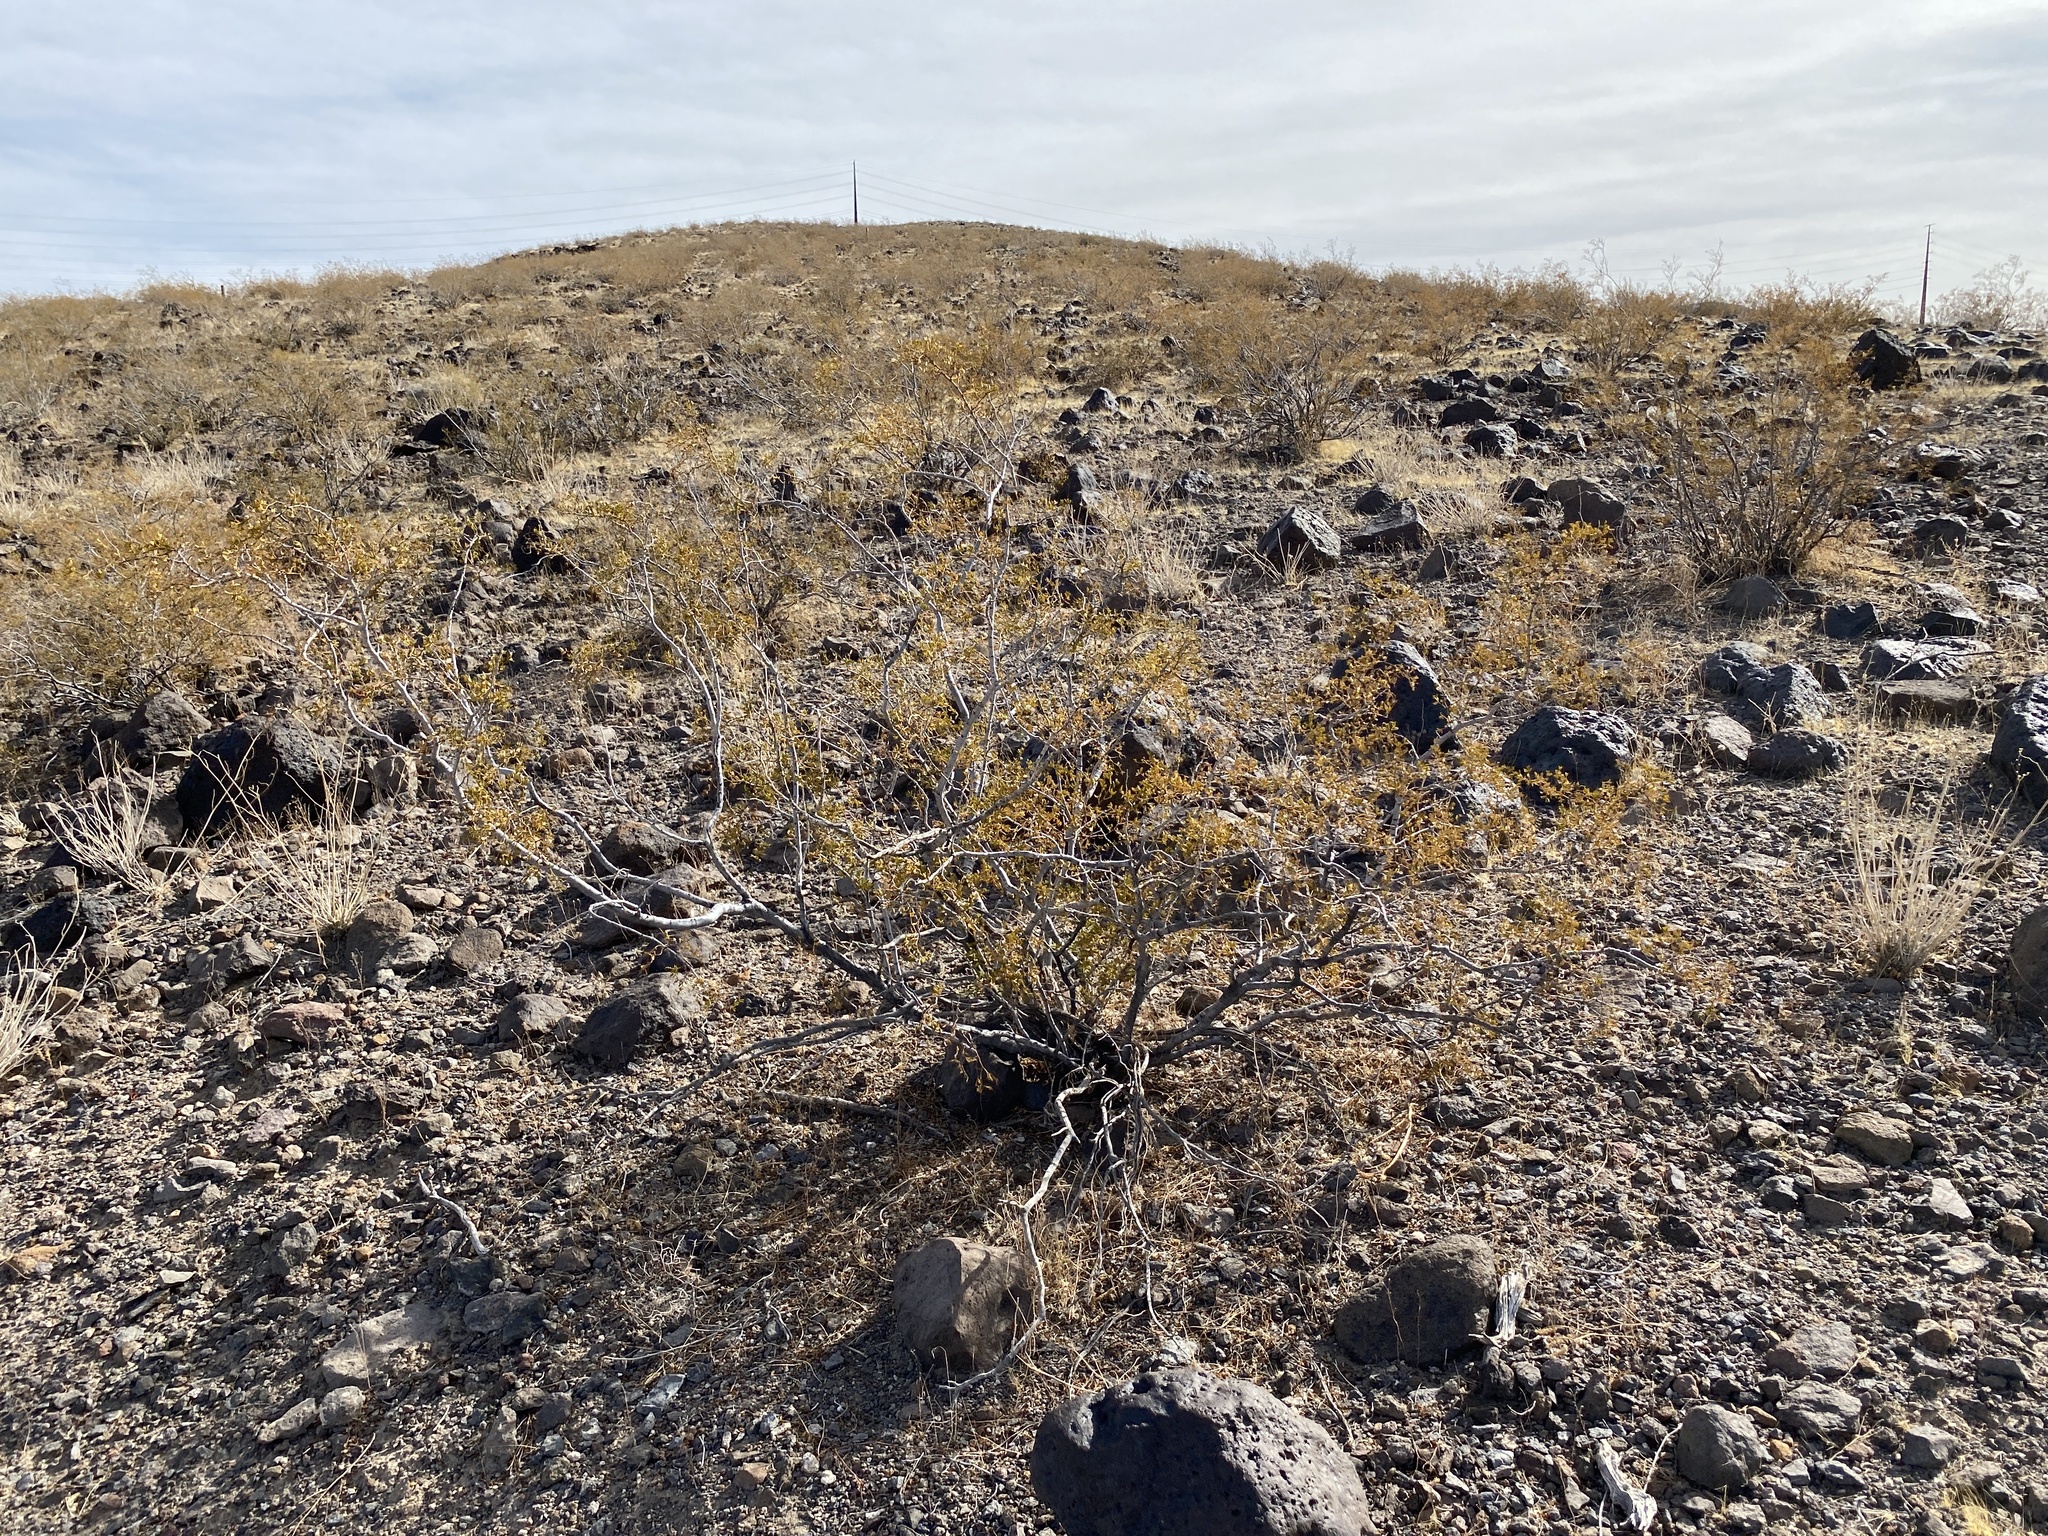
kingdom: Plantae
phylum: Tracheophyta
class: Magnoliopsida
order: Zygophyllales
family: Zygophyllaceae
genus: Larrea
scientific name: Larrea tridentata
